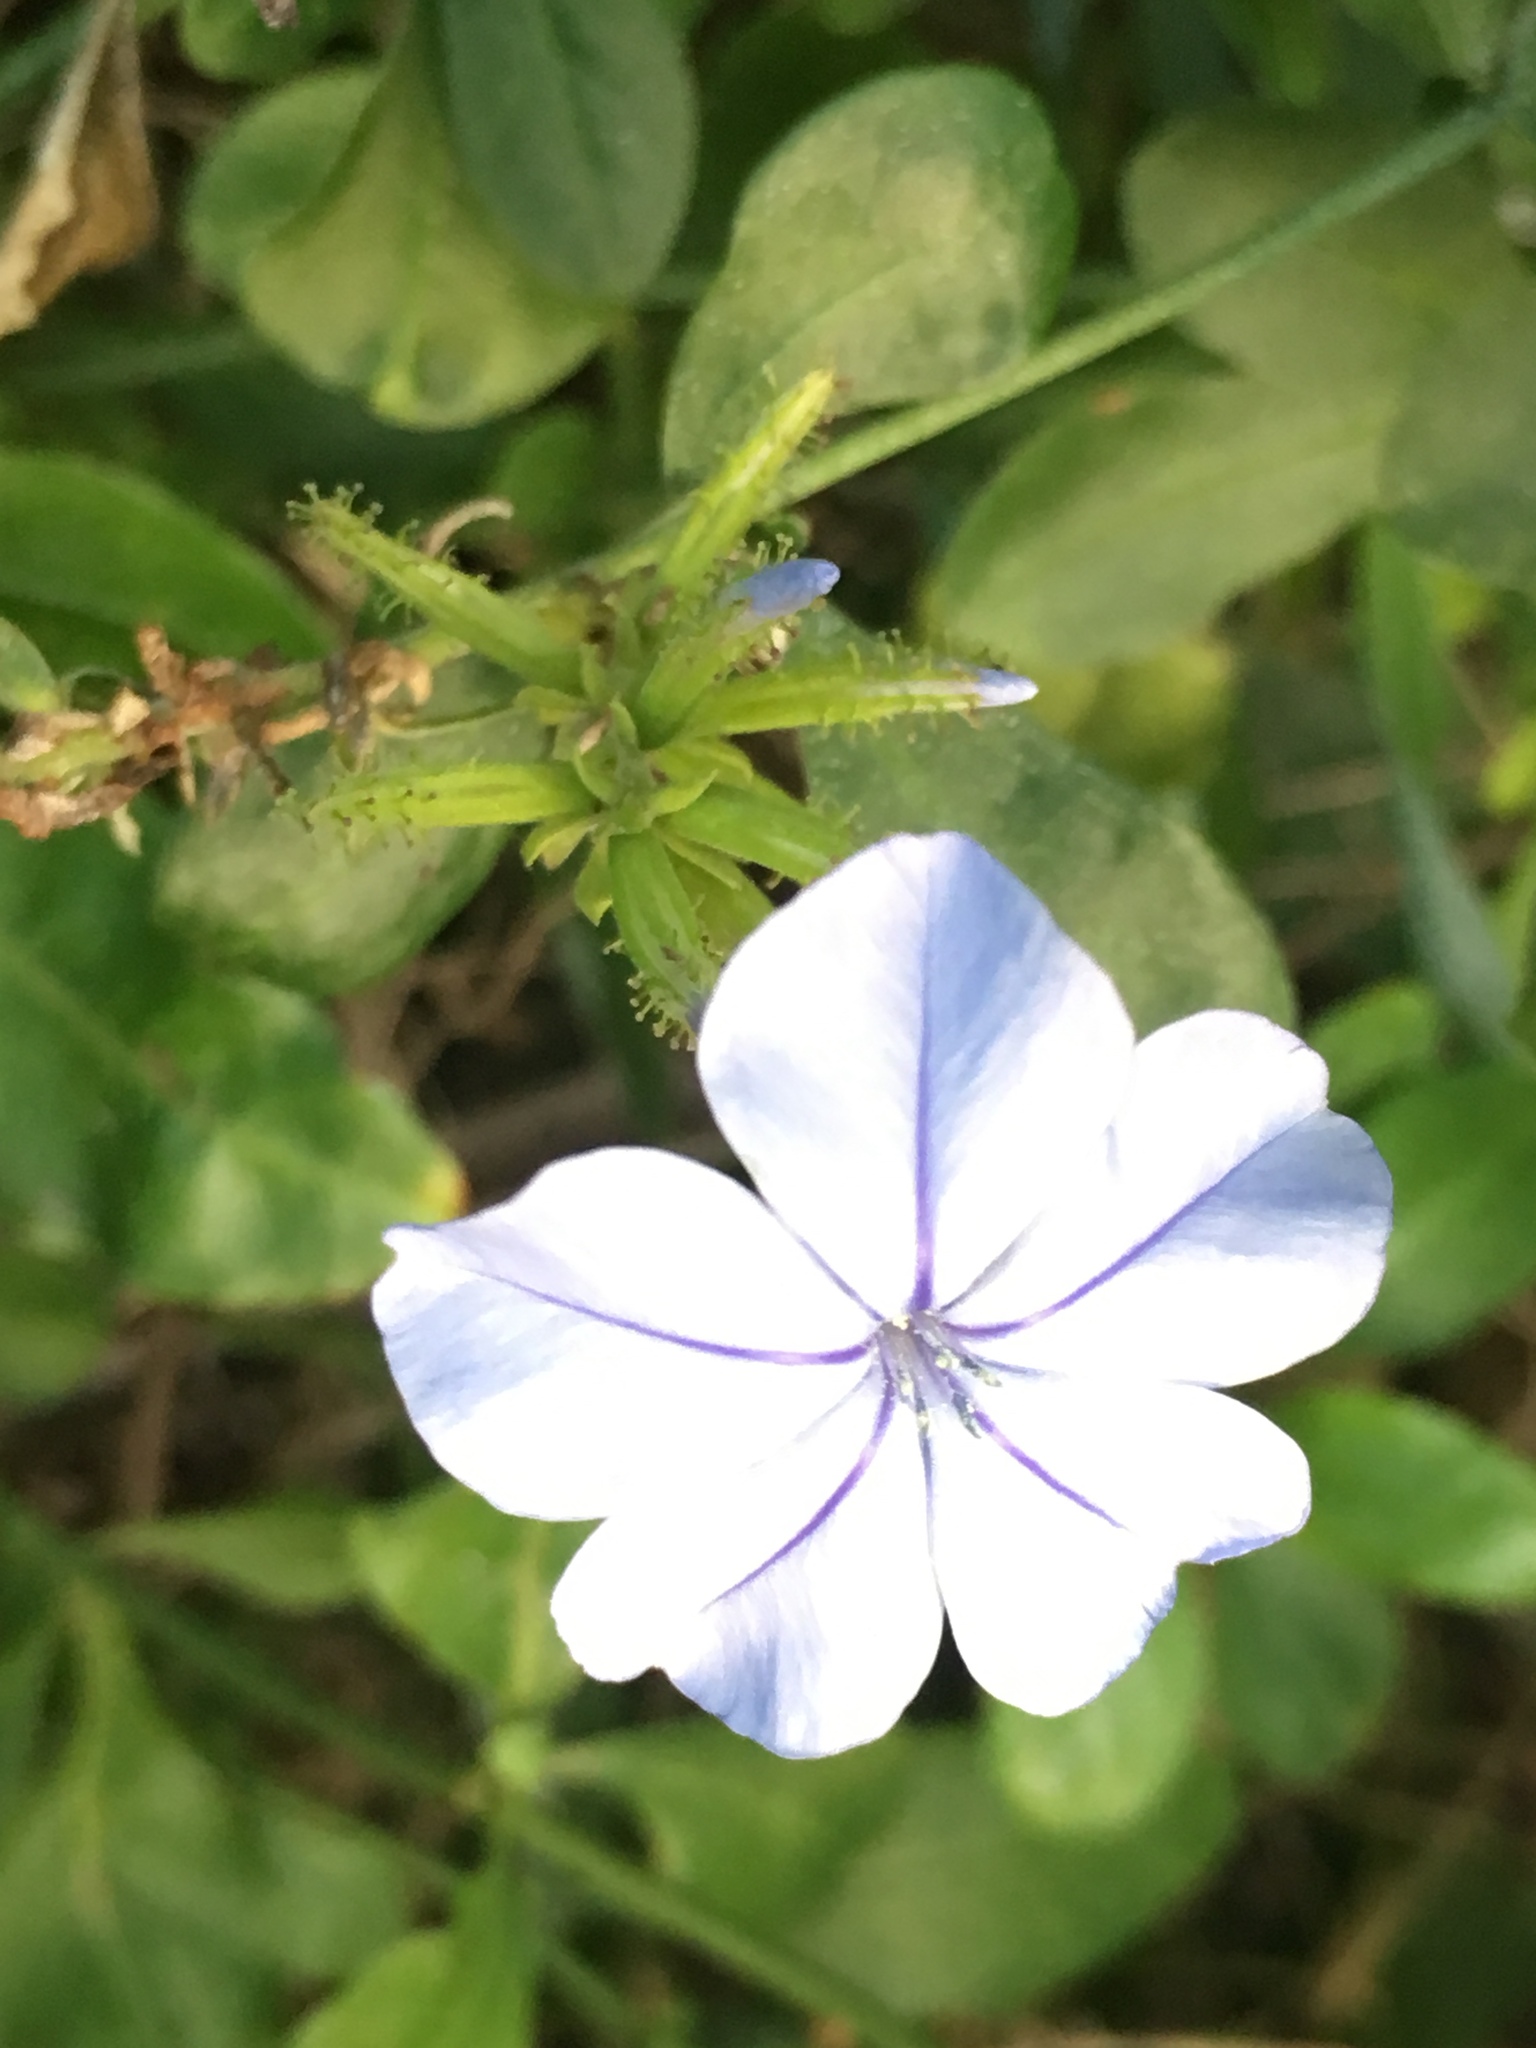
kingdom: Plantae
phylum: Tracheophyta
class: Magnoliopsida
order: Caryophyllales
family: Plumbaginaceae
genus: Plumbago
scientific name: Plumbago auriculata
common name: Cape leadwort
